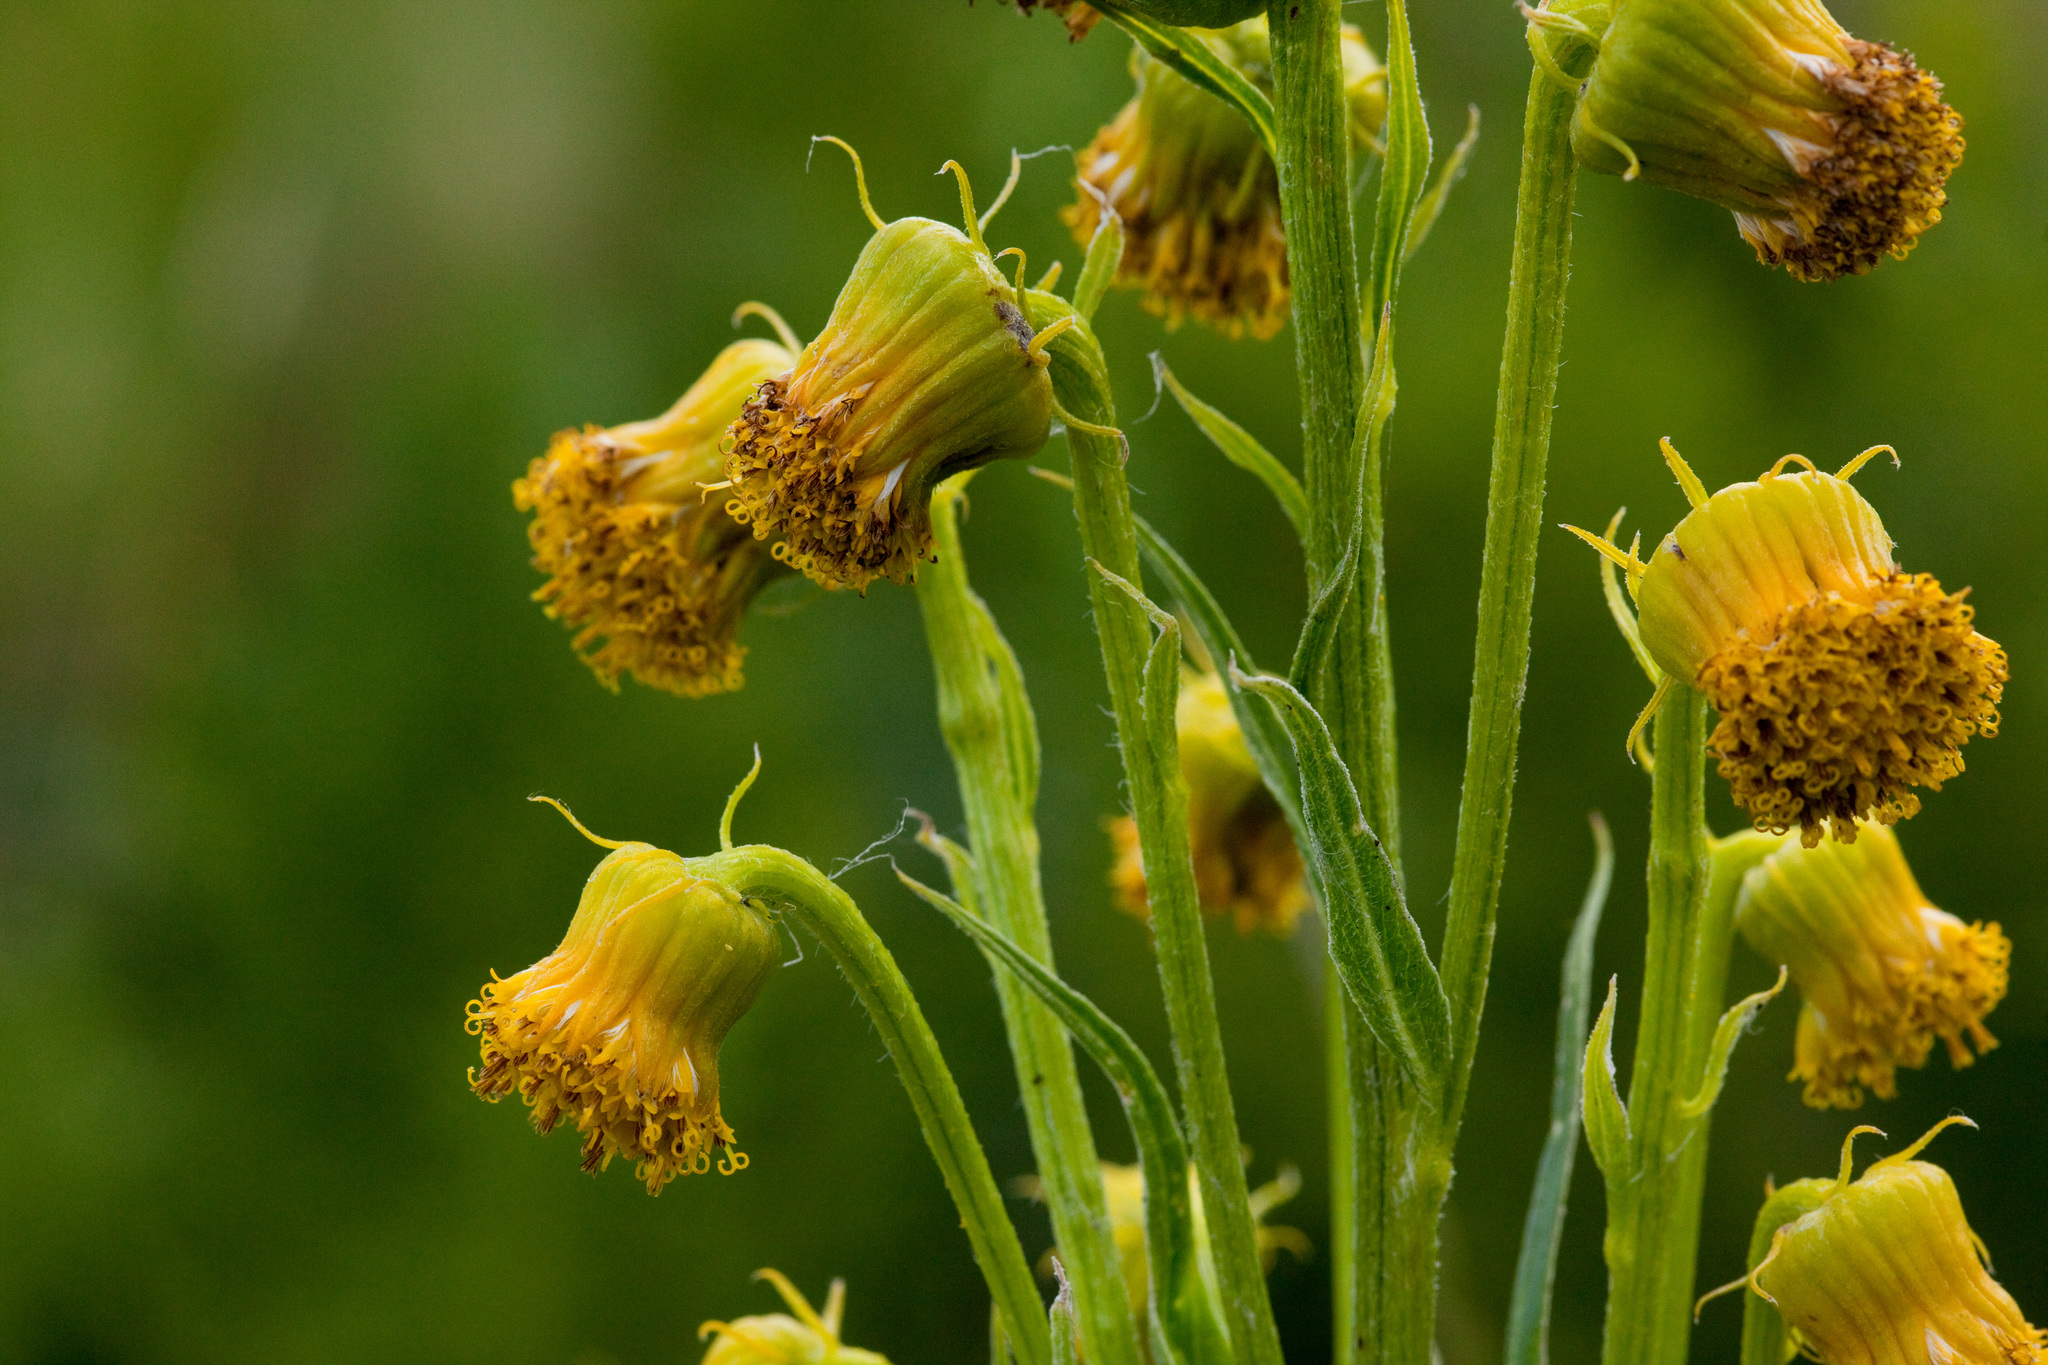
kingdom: Plantae
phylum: Tracheophyta
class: Magnoliopsida
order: Asterales
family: Asteraceae
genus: Senecio
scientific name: Senecio bigelovii
